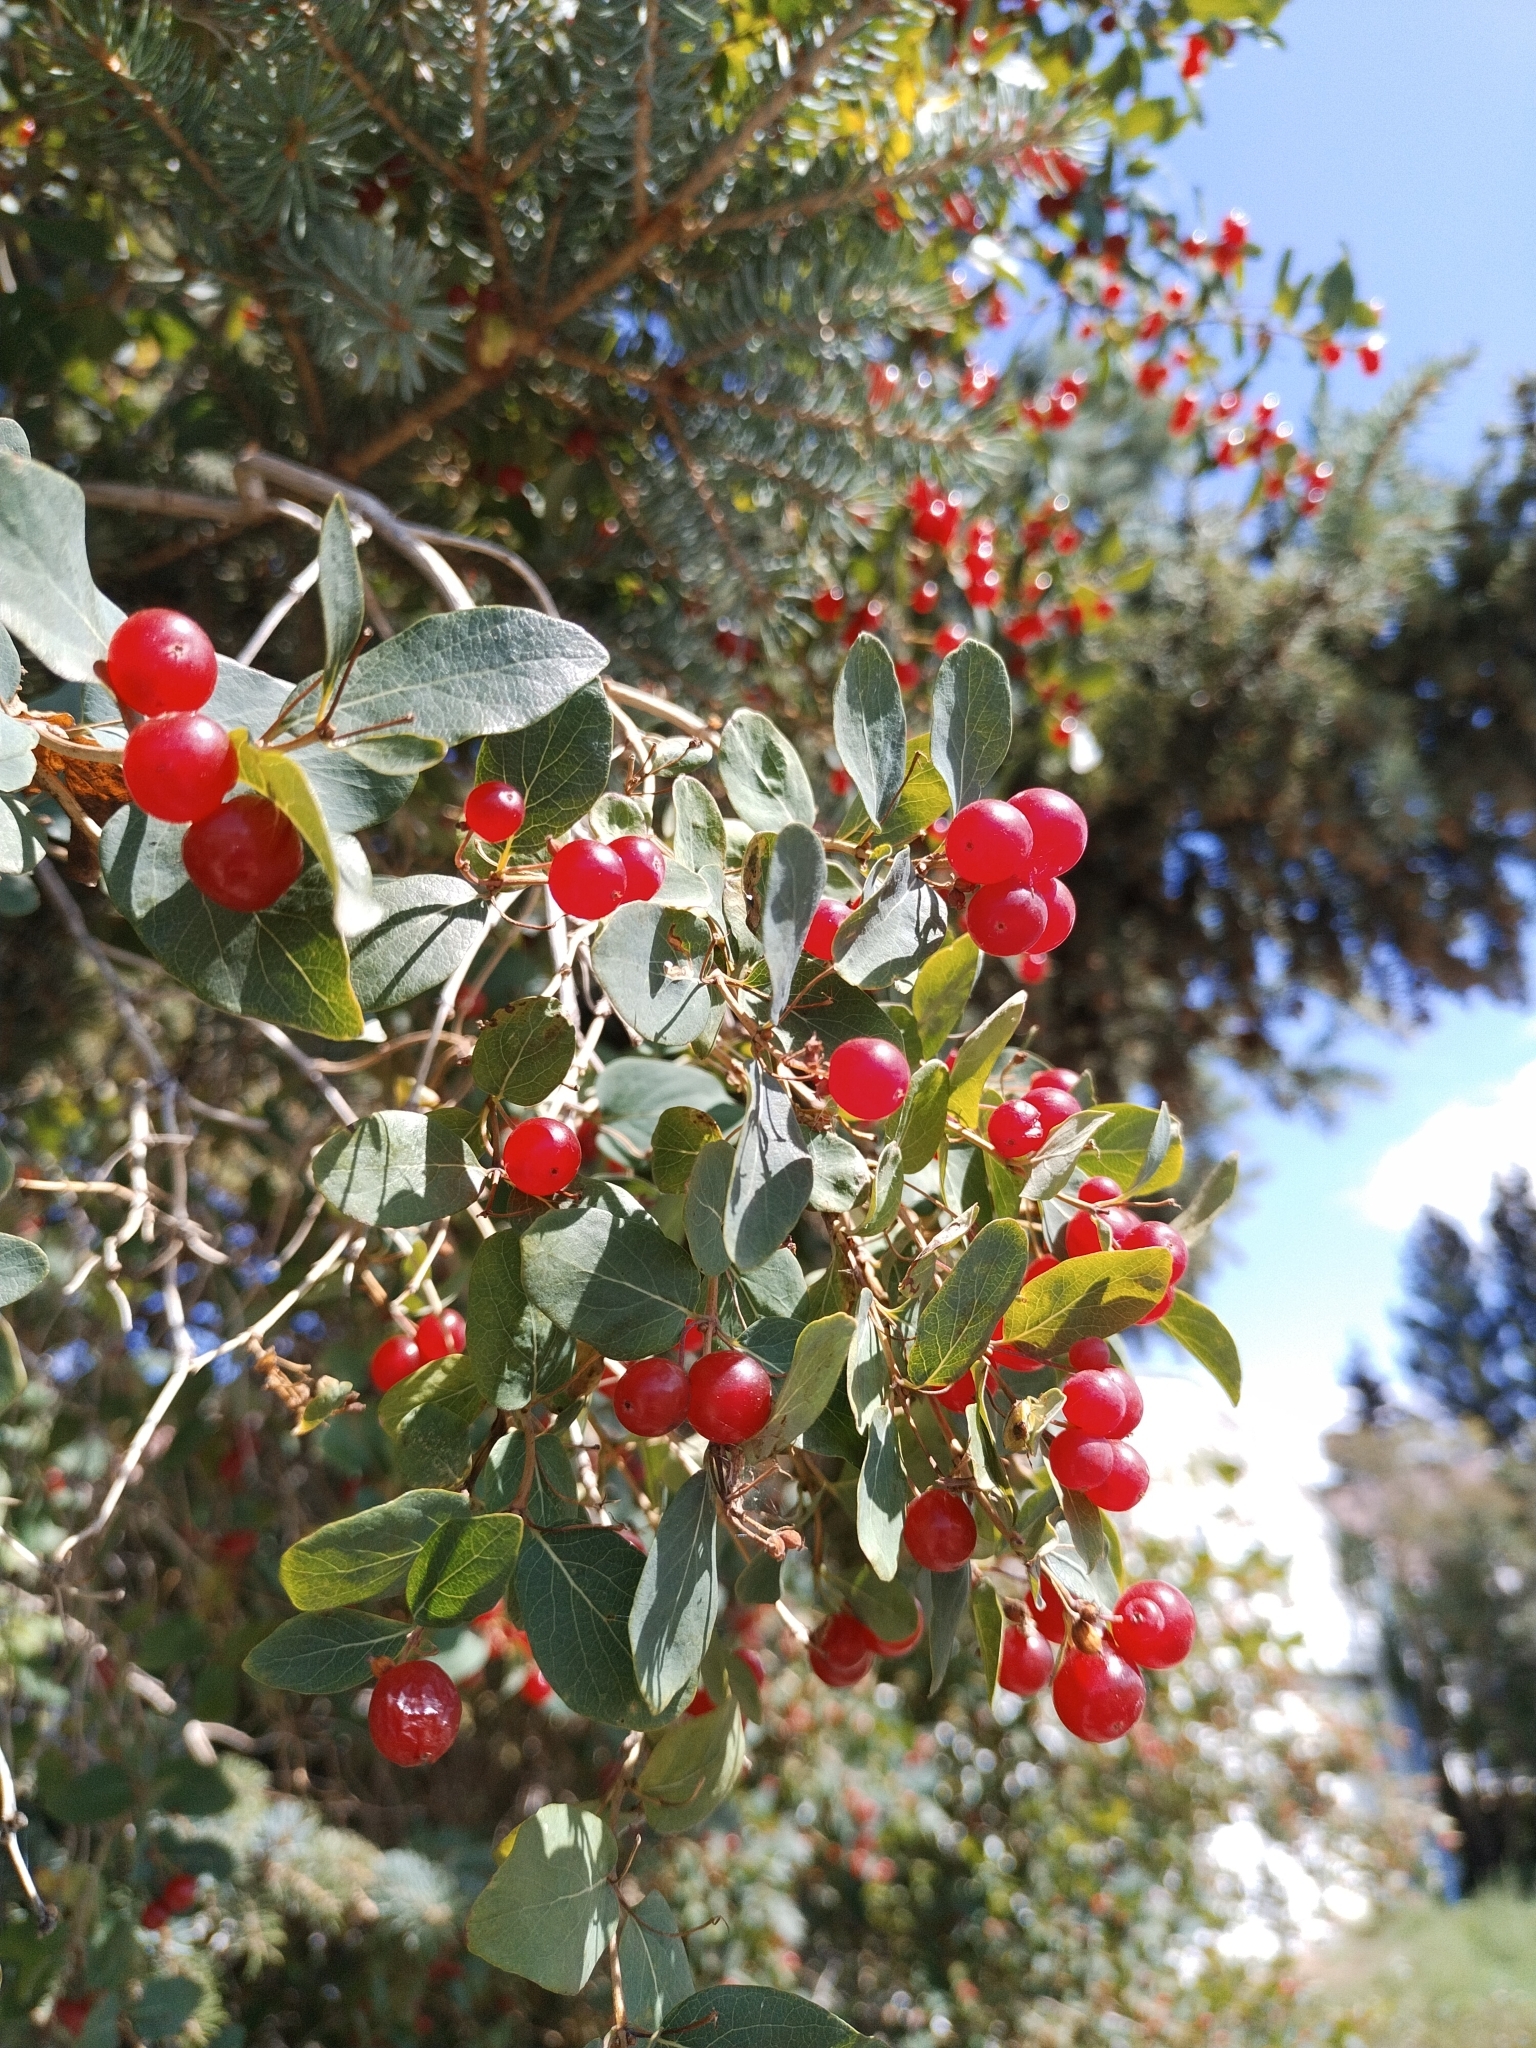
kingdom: Plantae
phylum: Tracheophyta
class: Magnoliopsida
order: Dipsacales
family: Caprifoliaceae
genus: Lonicera
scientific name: Lonicera tatarica
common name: Tatarian honeysuckle
